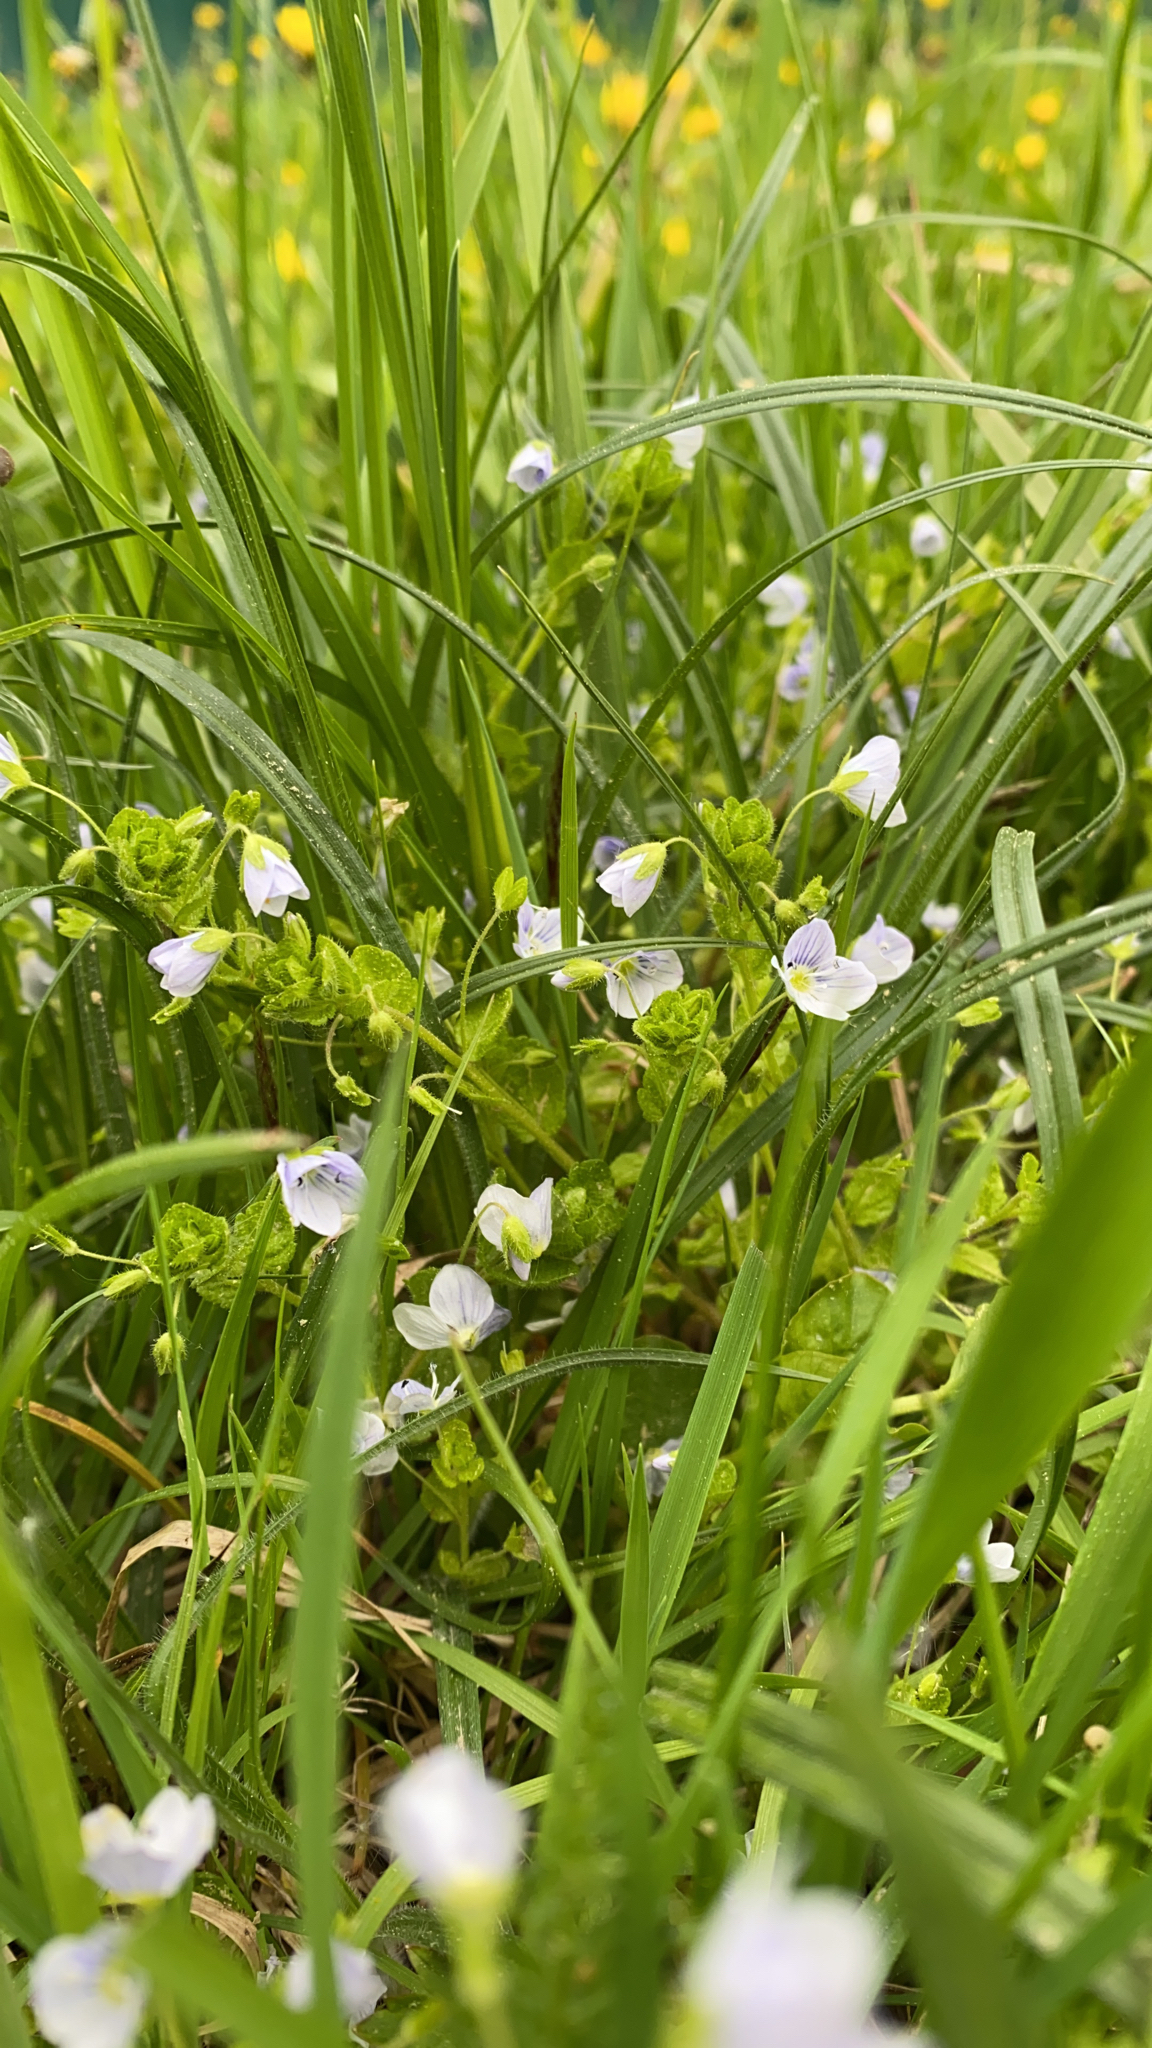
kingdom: Plantae
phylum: Tracheophyta
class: Magnoliopsida
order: Lamiales
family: Plantaginaceae
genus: Veronica
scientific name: Veronica filiformis
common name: Slender speedwell
